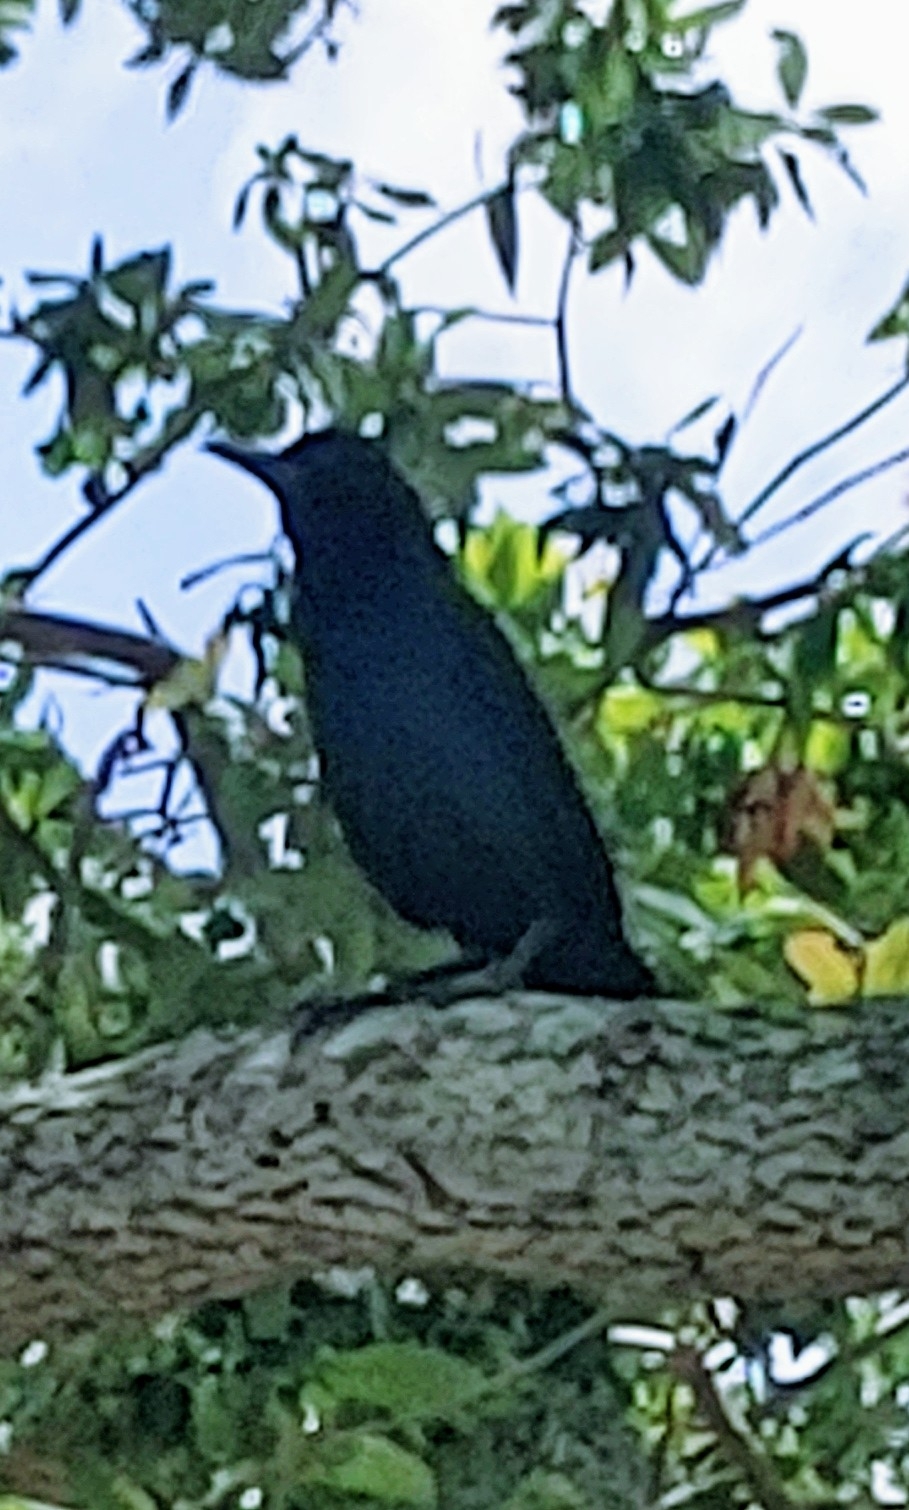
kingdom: Animalia
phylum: Chordata
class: Aves
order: Passeriformes
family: Icteridae
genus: Quiscalus
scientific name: Quiscalus major
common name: Boat-tailed grackle
